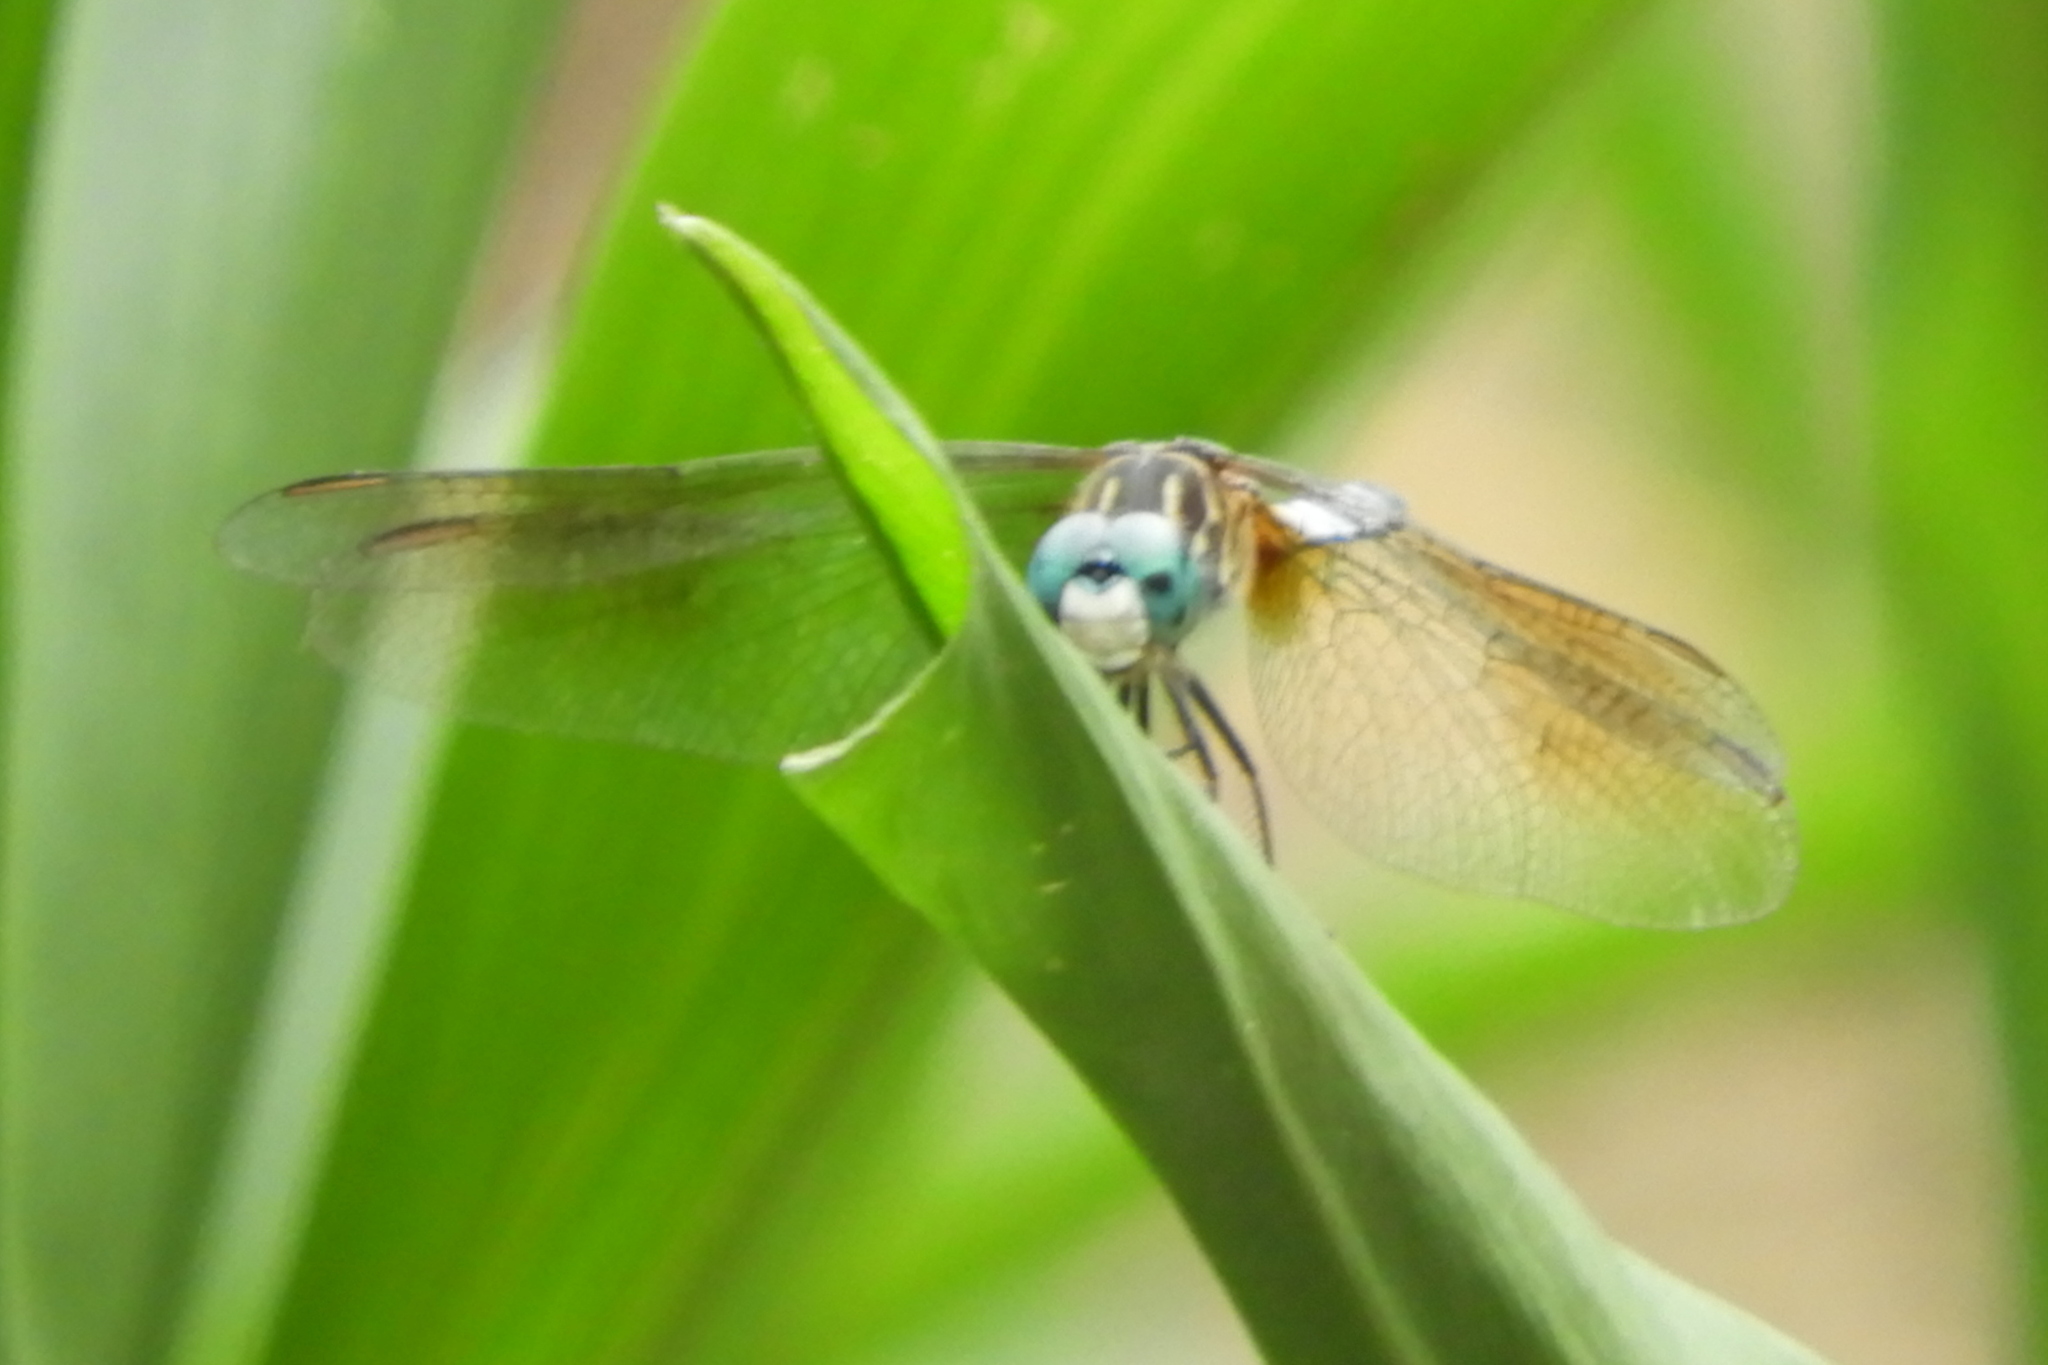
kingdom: Animalia
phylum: Arthropoda
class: Insecta
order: Odonata
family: Libellulidae
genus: Pachydiplax
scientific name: Pachydiplax longipennis
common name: Blue dasher
